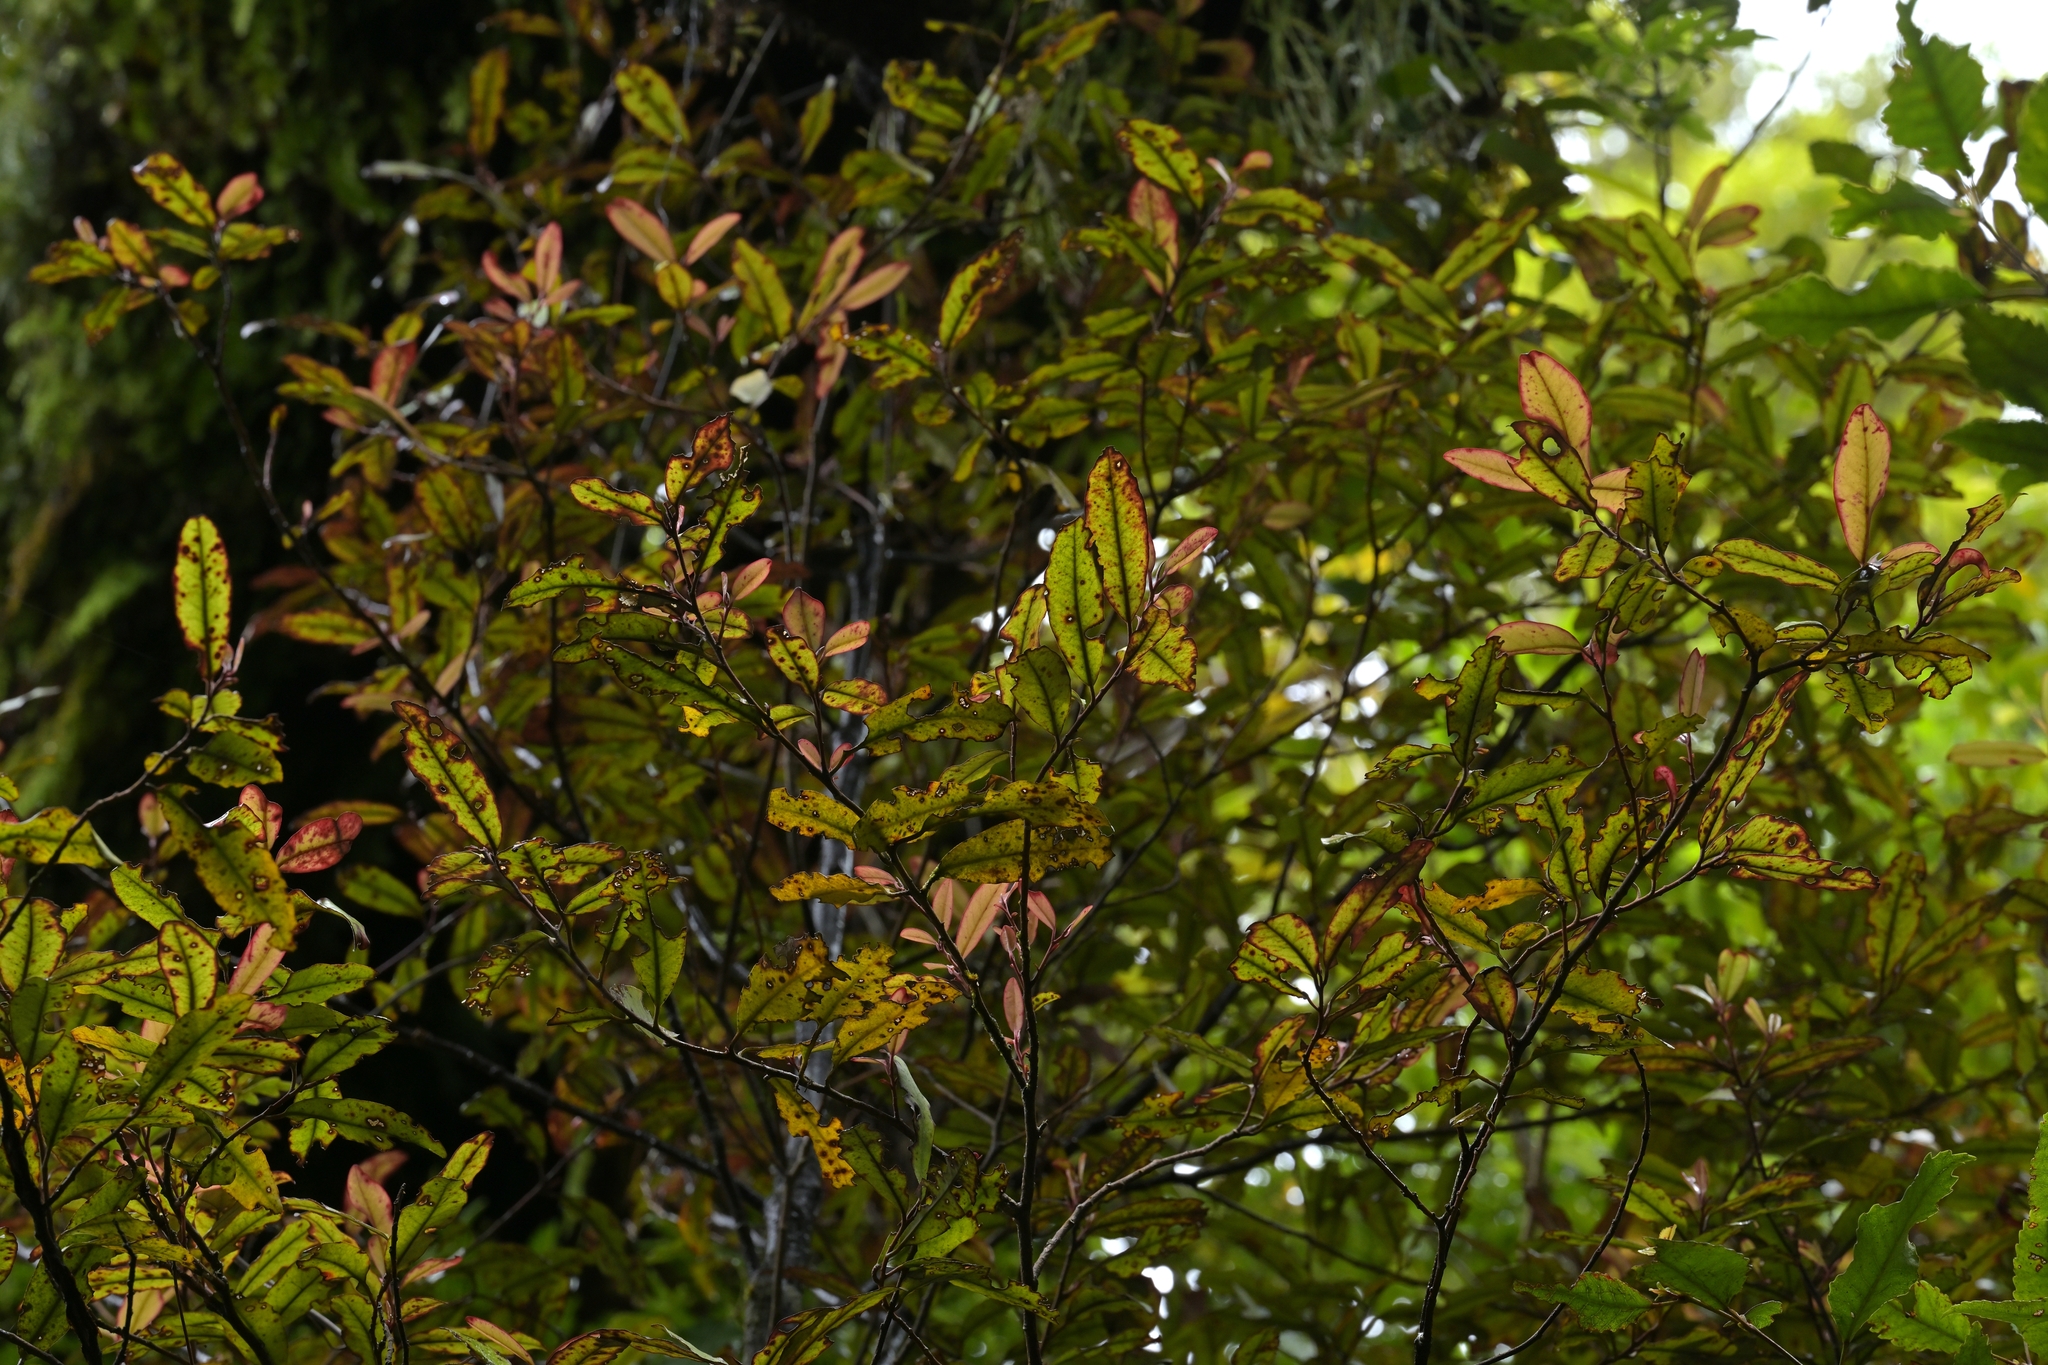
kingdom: Plantae
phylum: Tracheophyta
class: Magnoliopsida
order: Canellales
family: Winteraceae
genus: Pseudowintera
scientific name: Pseudowintera colorata
